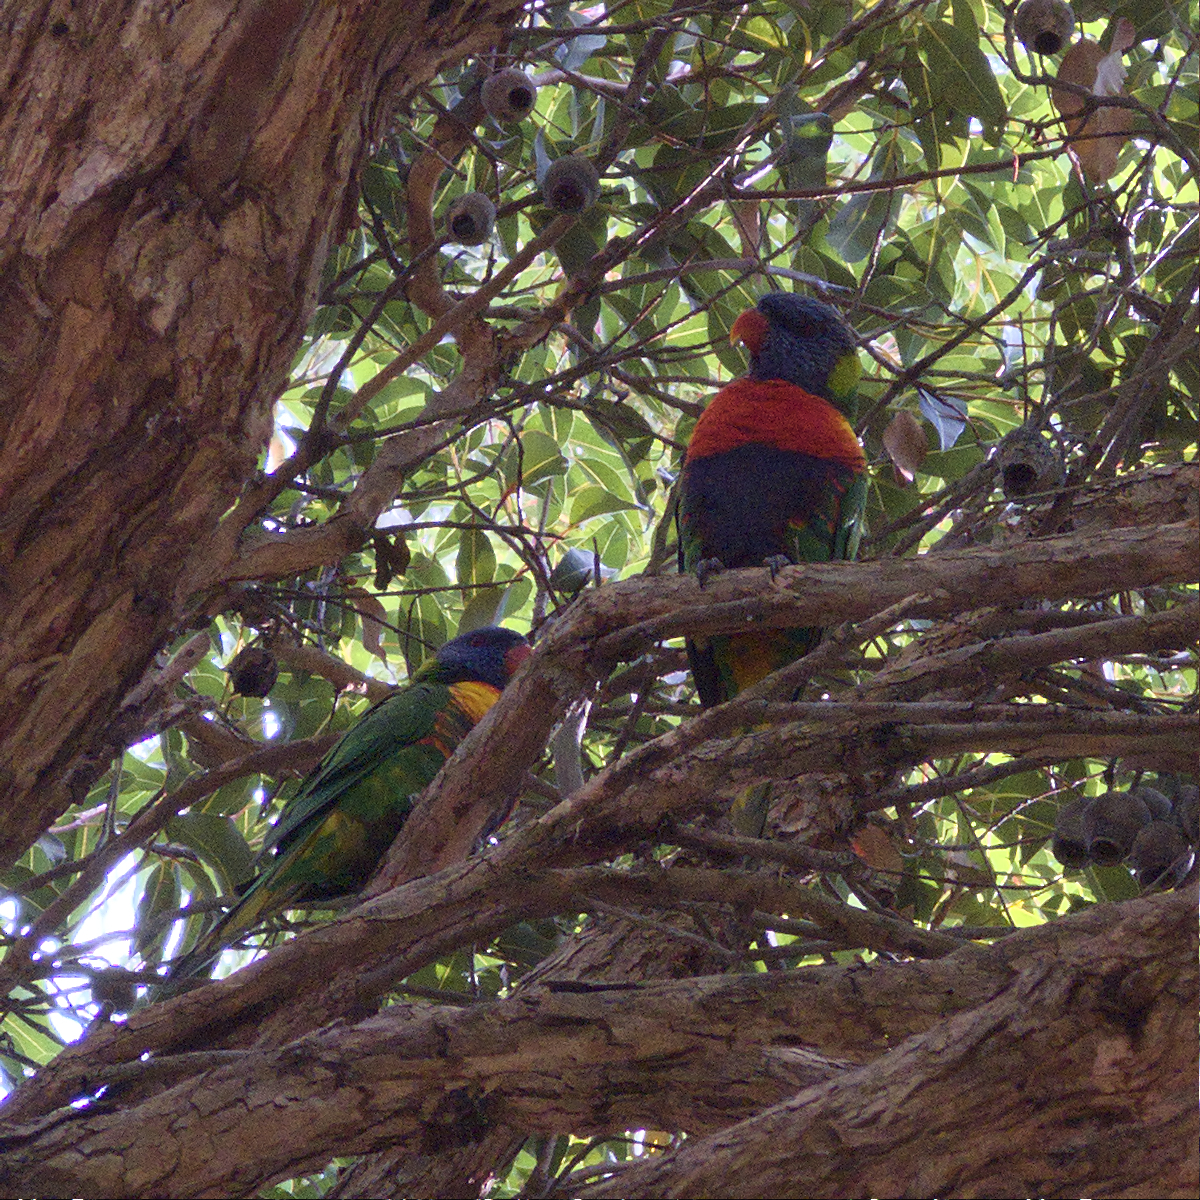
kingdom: Animalia
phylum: Chordata
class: Aves
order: Psittaciformes
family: Psittacidae
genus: Trichoglossus
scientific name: Trichoglossus haematodus
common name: Coconut lorikeet
